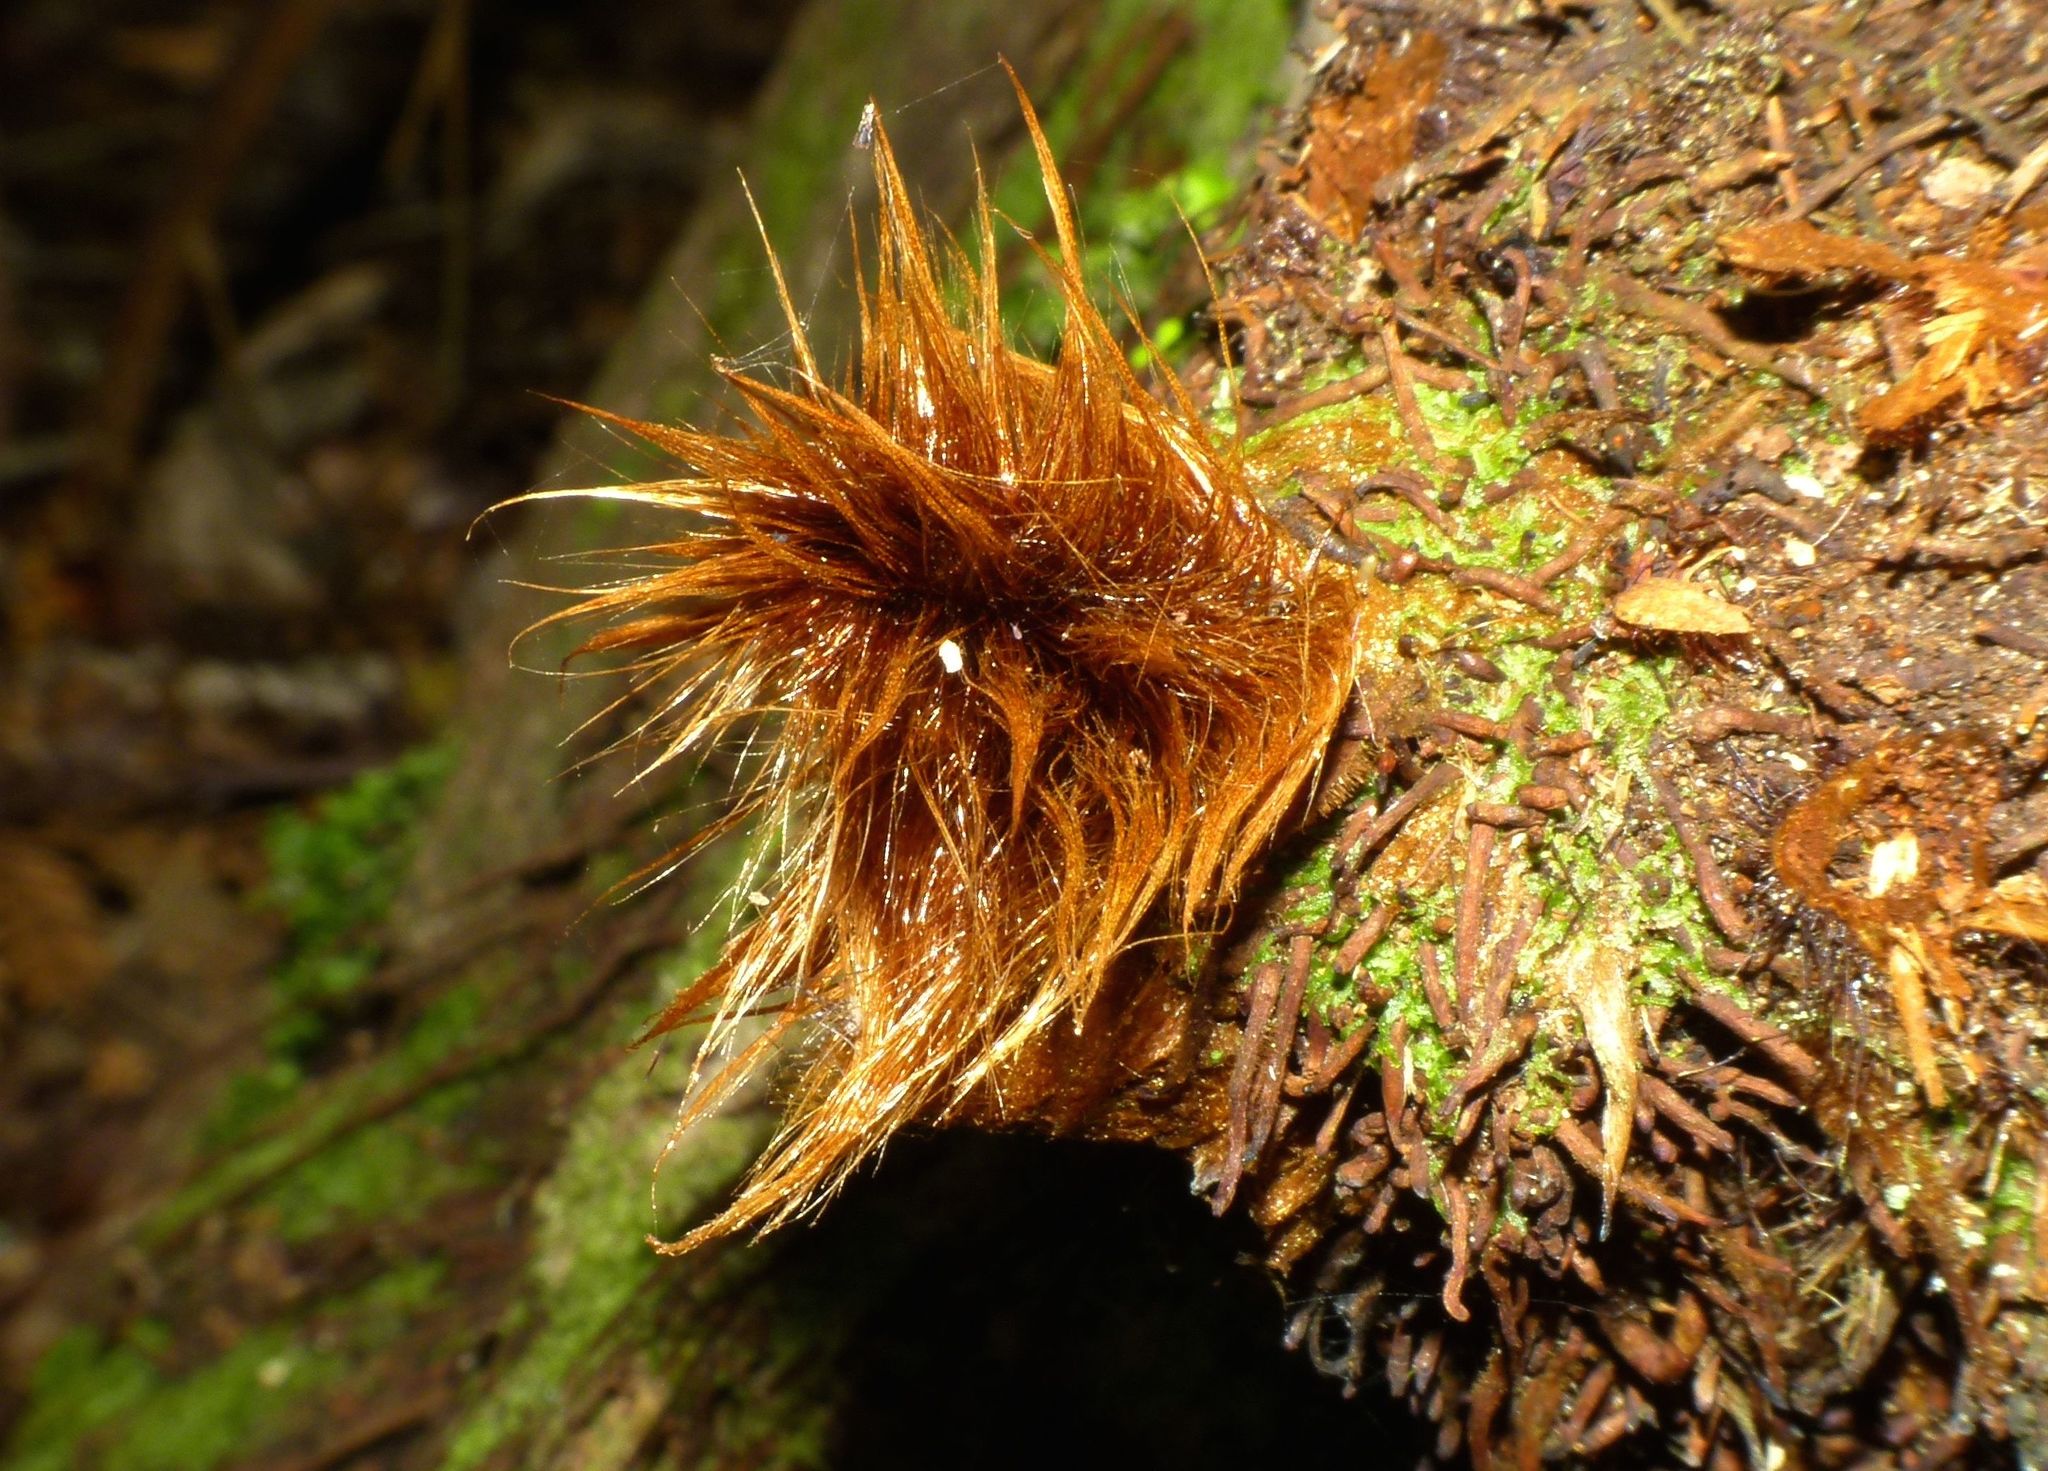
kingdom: Plantae
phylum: Tracheophyta
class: Polypodiopsida
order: Cyatheales
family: Dicksoniaceae
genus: Dicksonia
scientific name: Dicksonia fibrosa
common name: Golden tree fern
